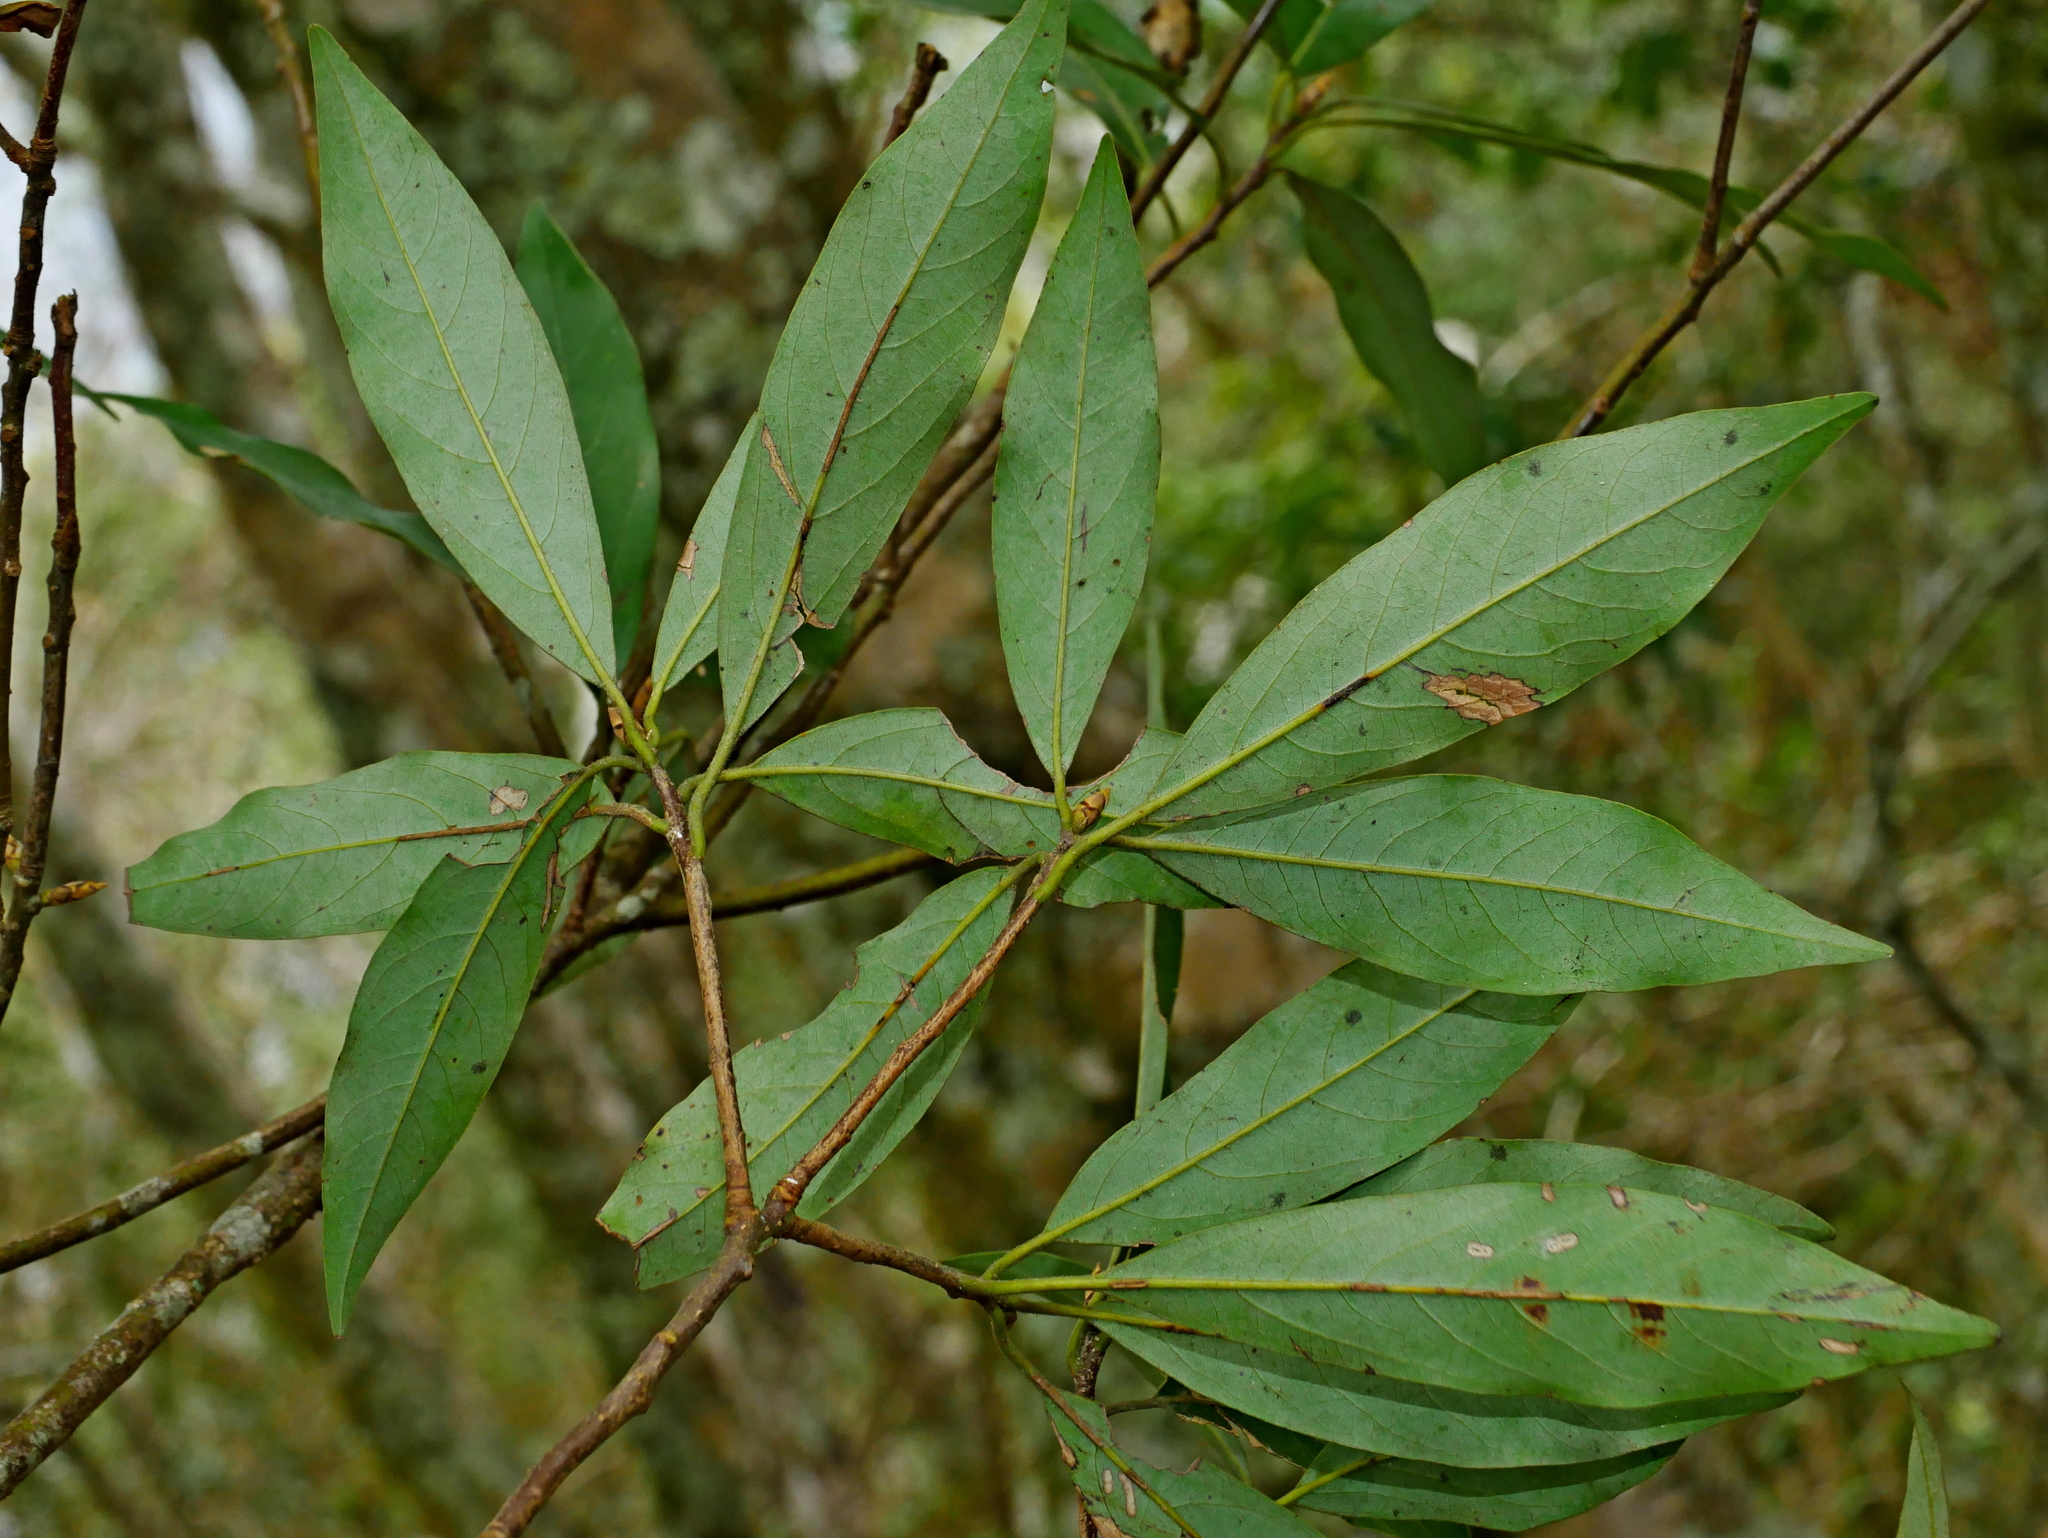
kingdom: Plantae
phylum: Tracheophyta
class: Magnoliopsida
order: Fagales
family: Fagaceae
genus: Quercus
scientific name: Quercus pachyloma
